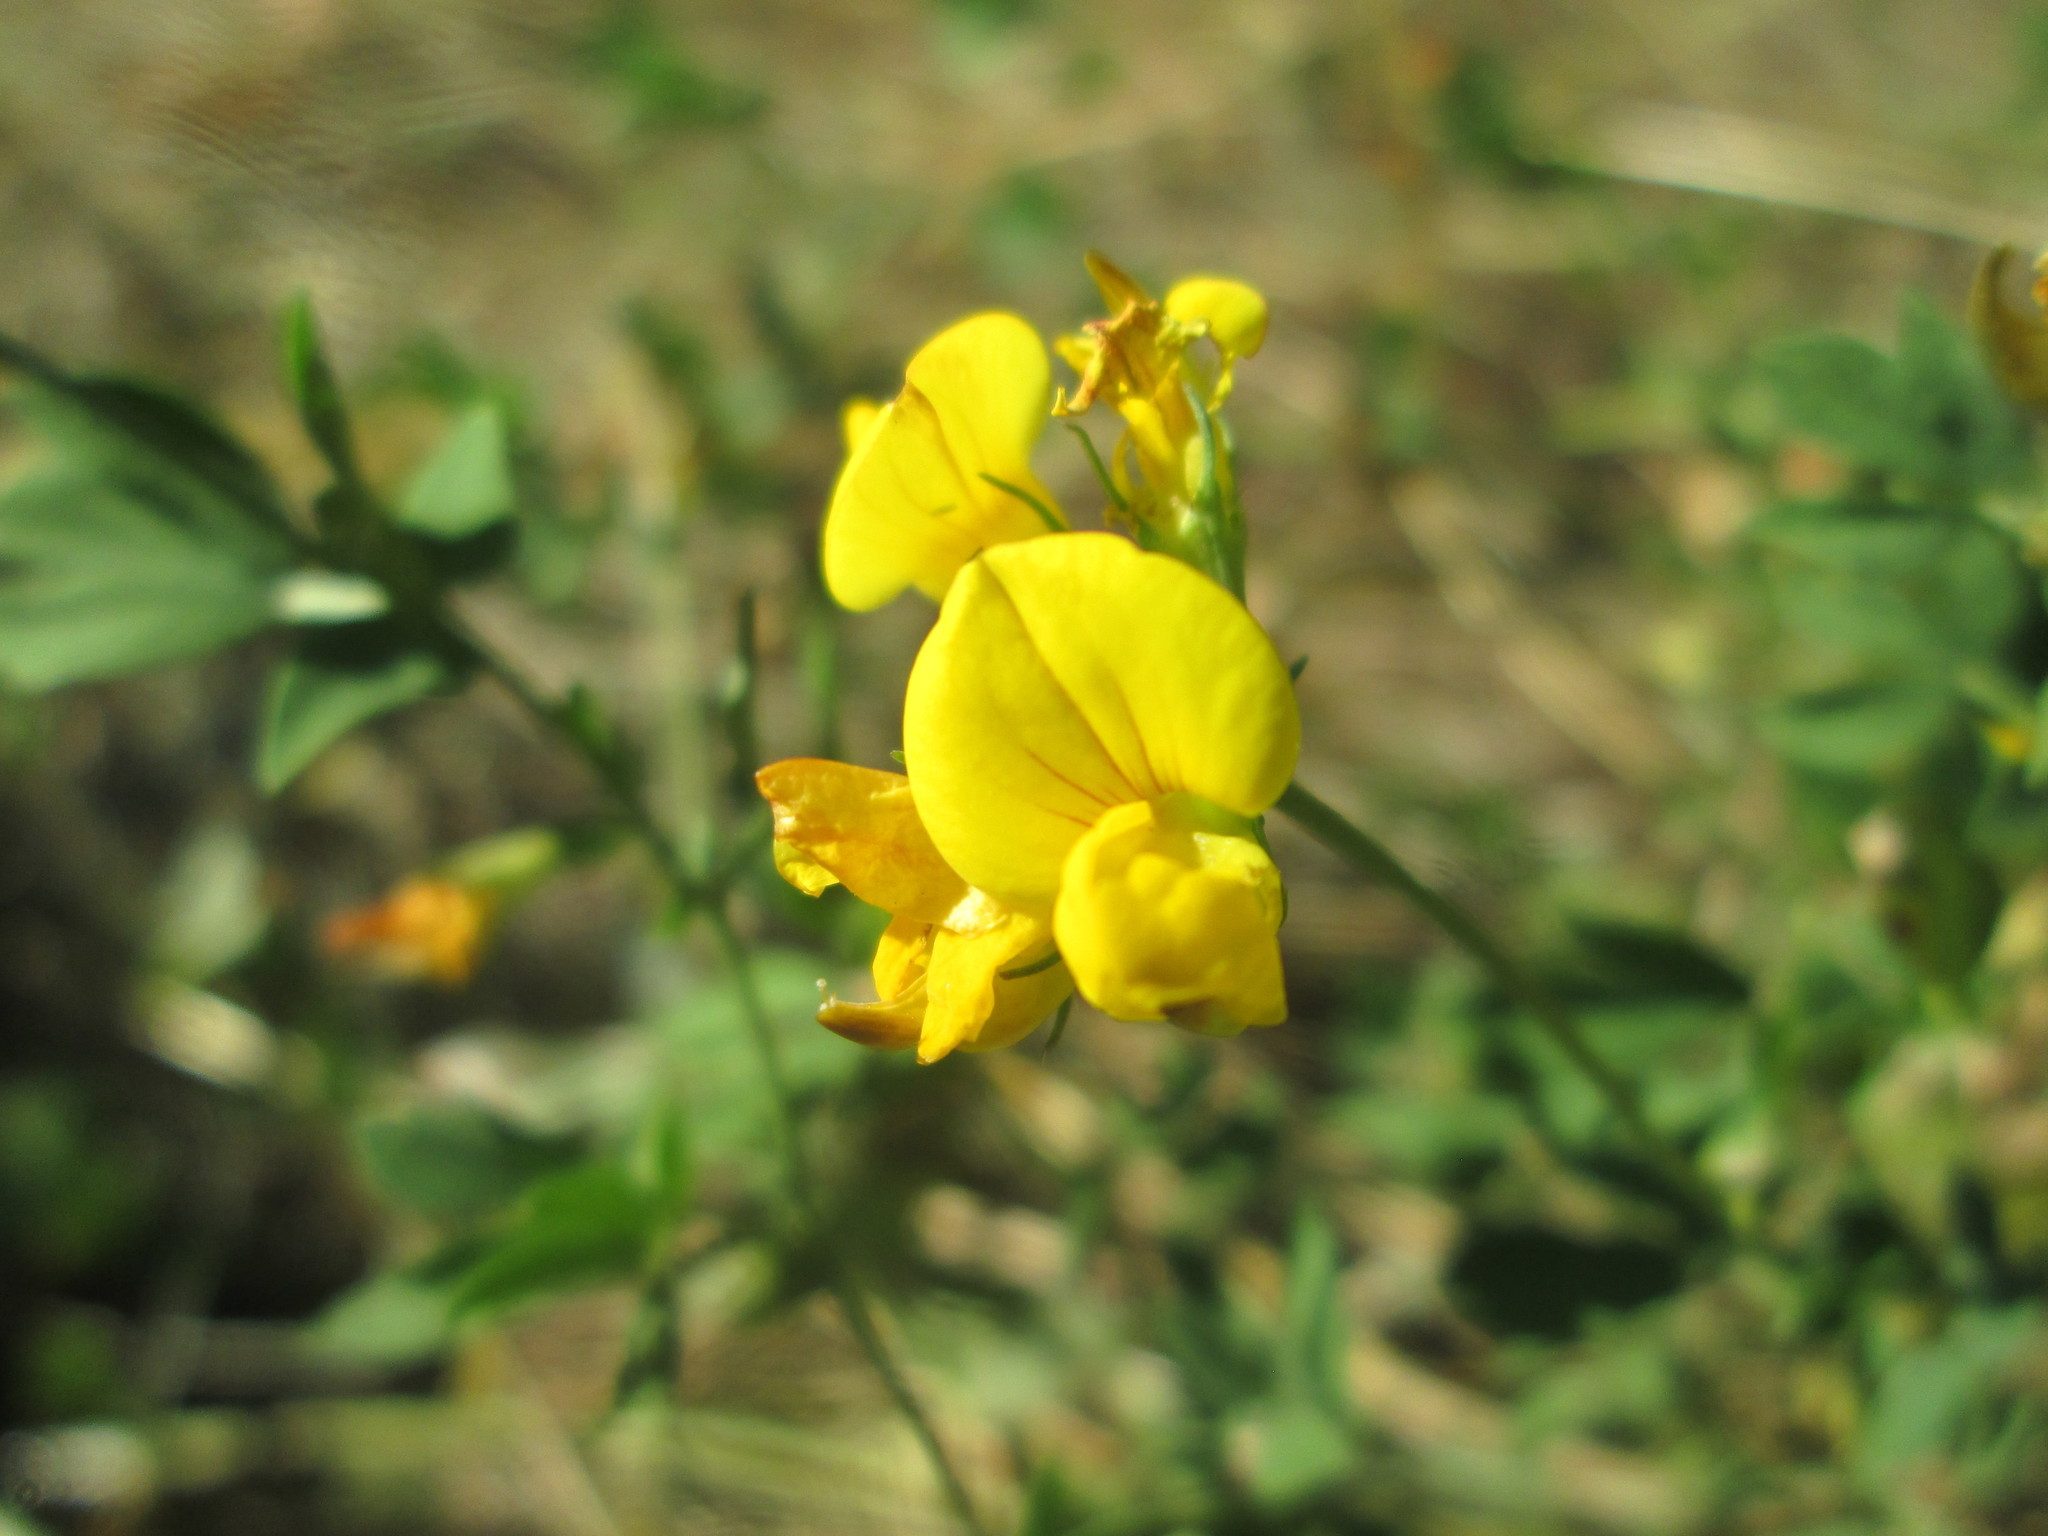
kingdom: Plantae
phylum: Tracheophyta
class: Magnoliopsida
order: Fabales
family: Fabaceae
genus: Lotus
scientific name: Lotus corniculatus
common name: Common bird's-foot-trefoil
